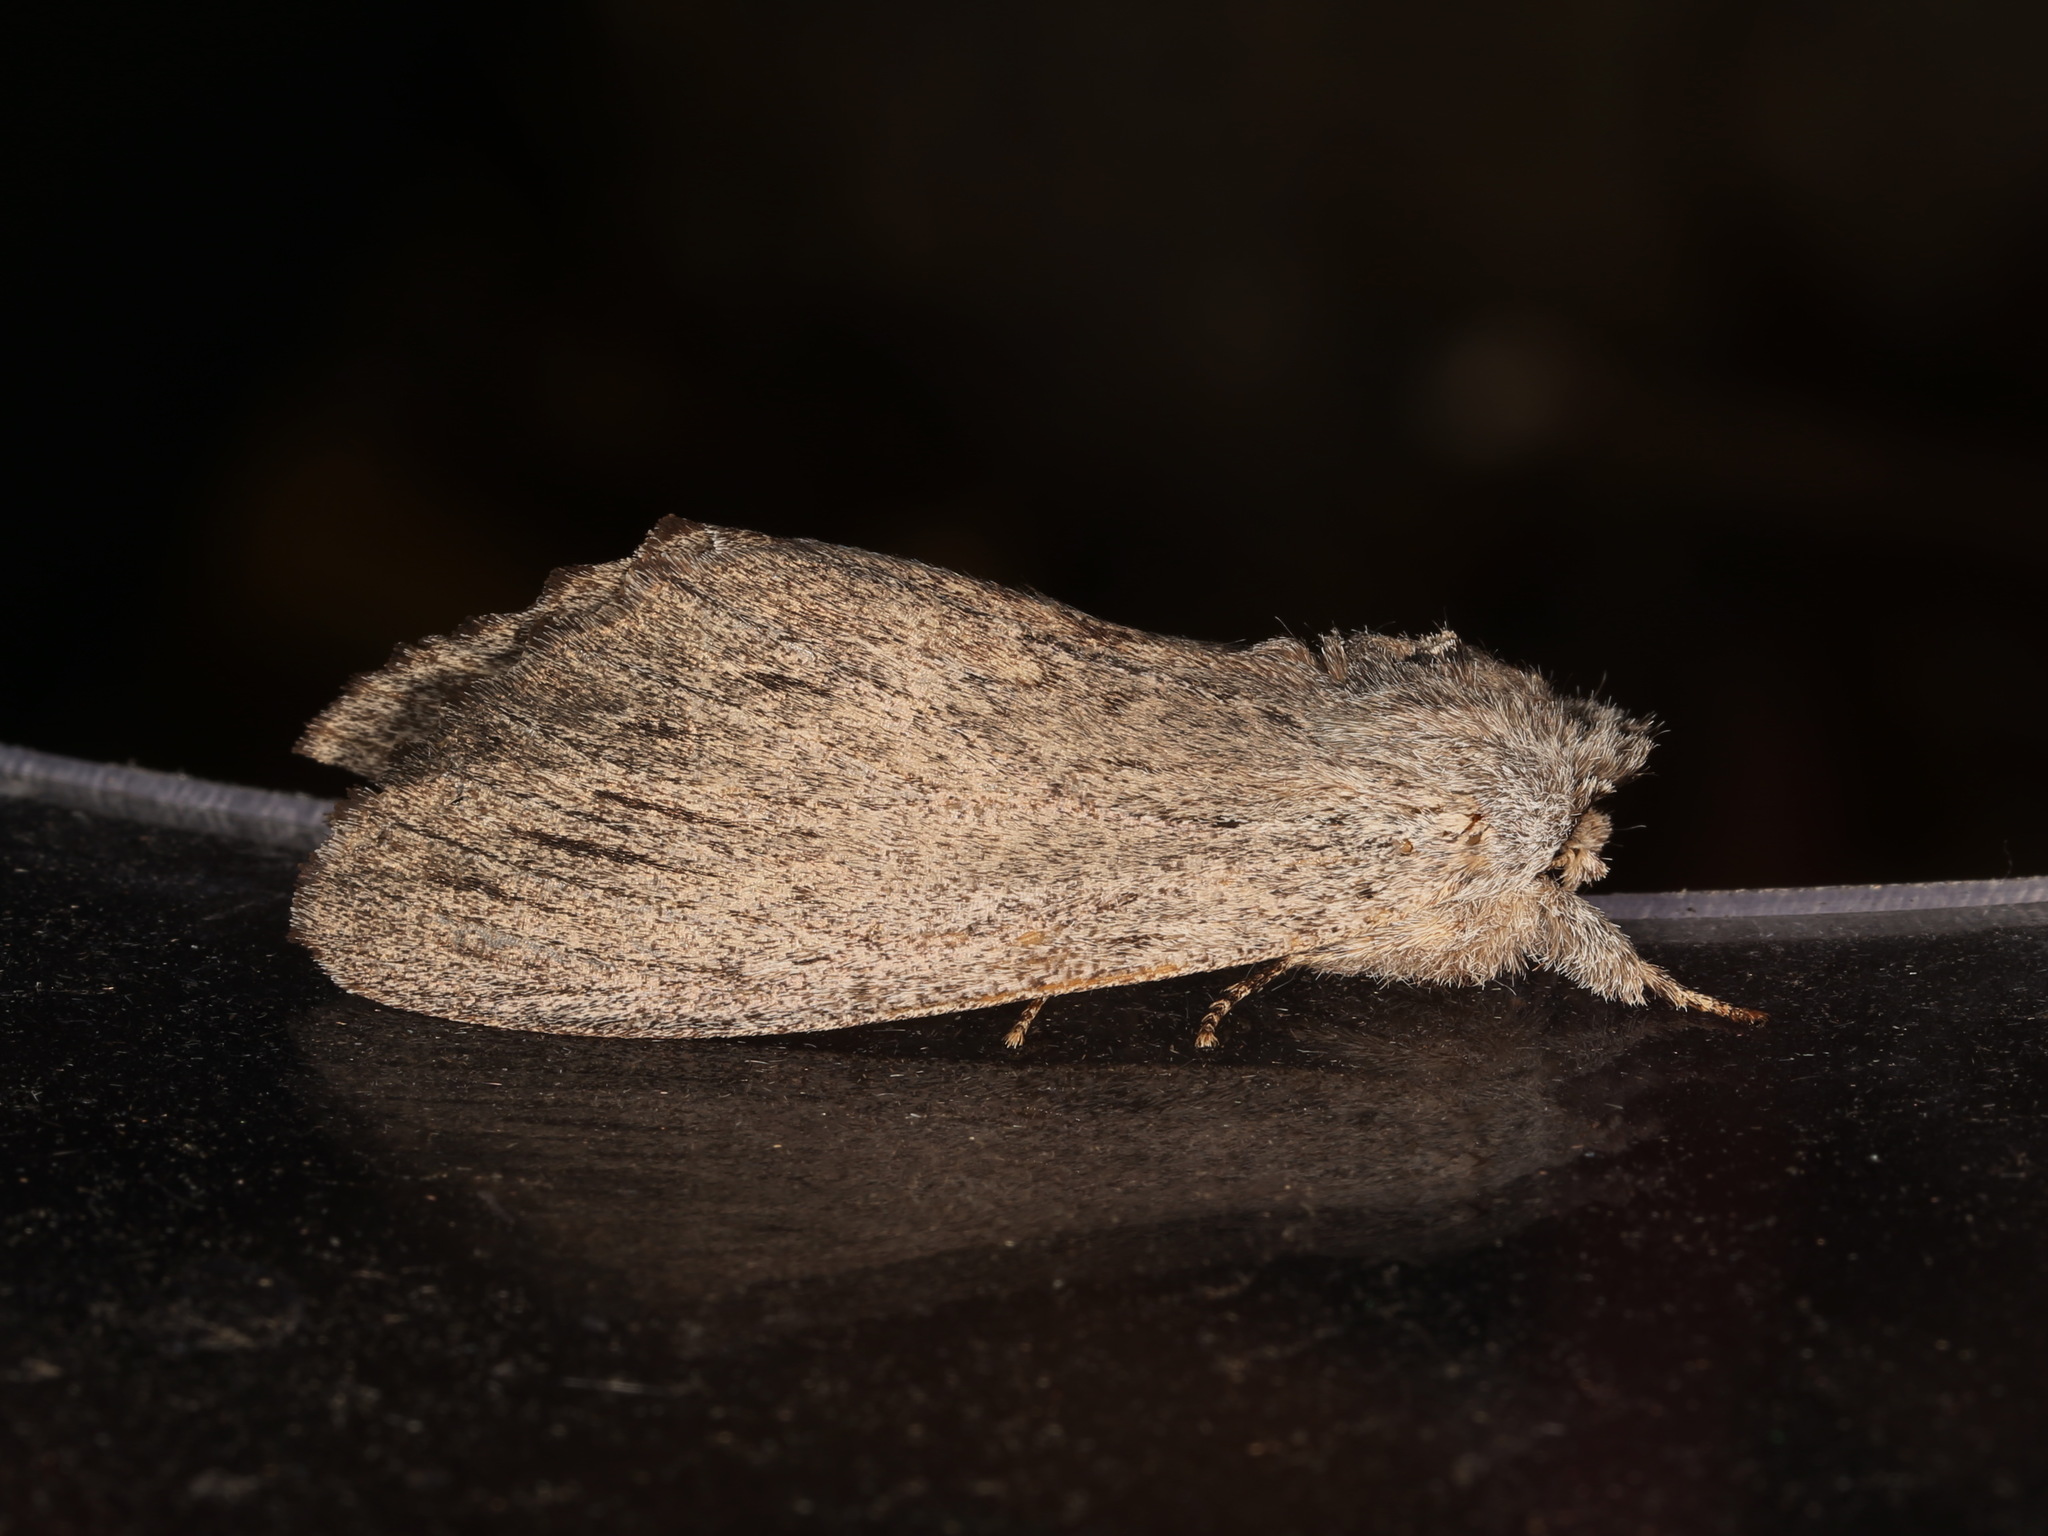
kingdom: Animalia
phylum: Arthropoda
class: Insecta
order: Lepidoptera
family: Notodontidae
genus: Destolmia
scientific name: Destolmia lineata
